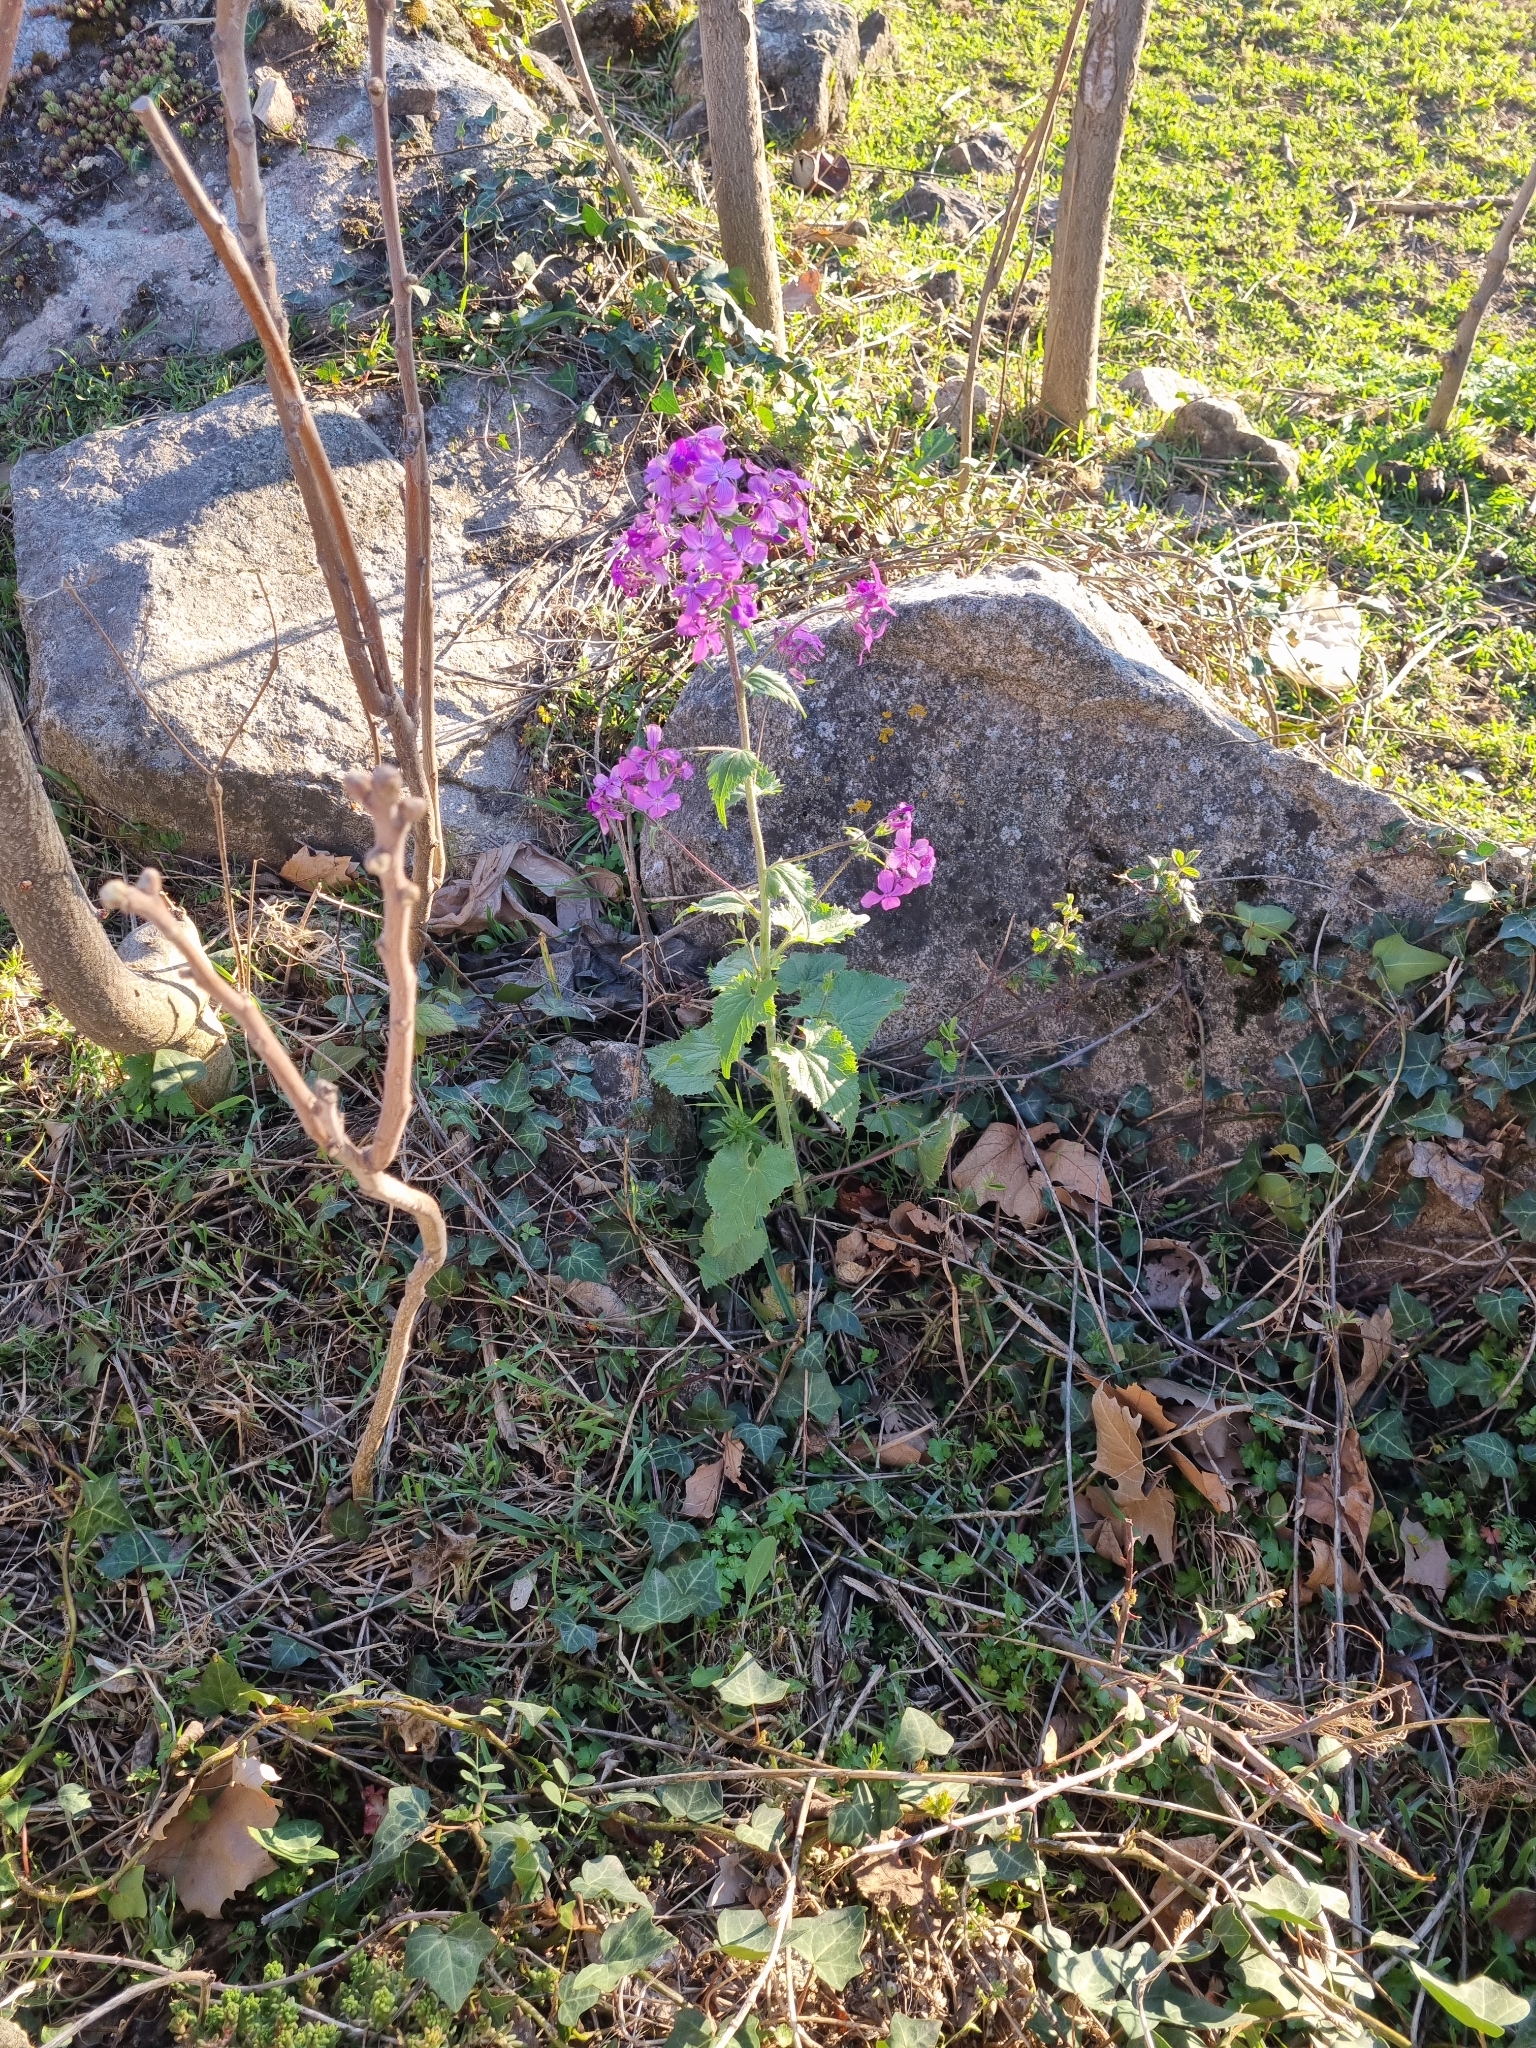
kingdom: Plantae
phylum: Tracheophyta
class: Magnoliopsida
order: Brassicales
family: Brassicaceae
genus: Lunaria
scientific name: Lunaria annua
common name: Honesty
